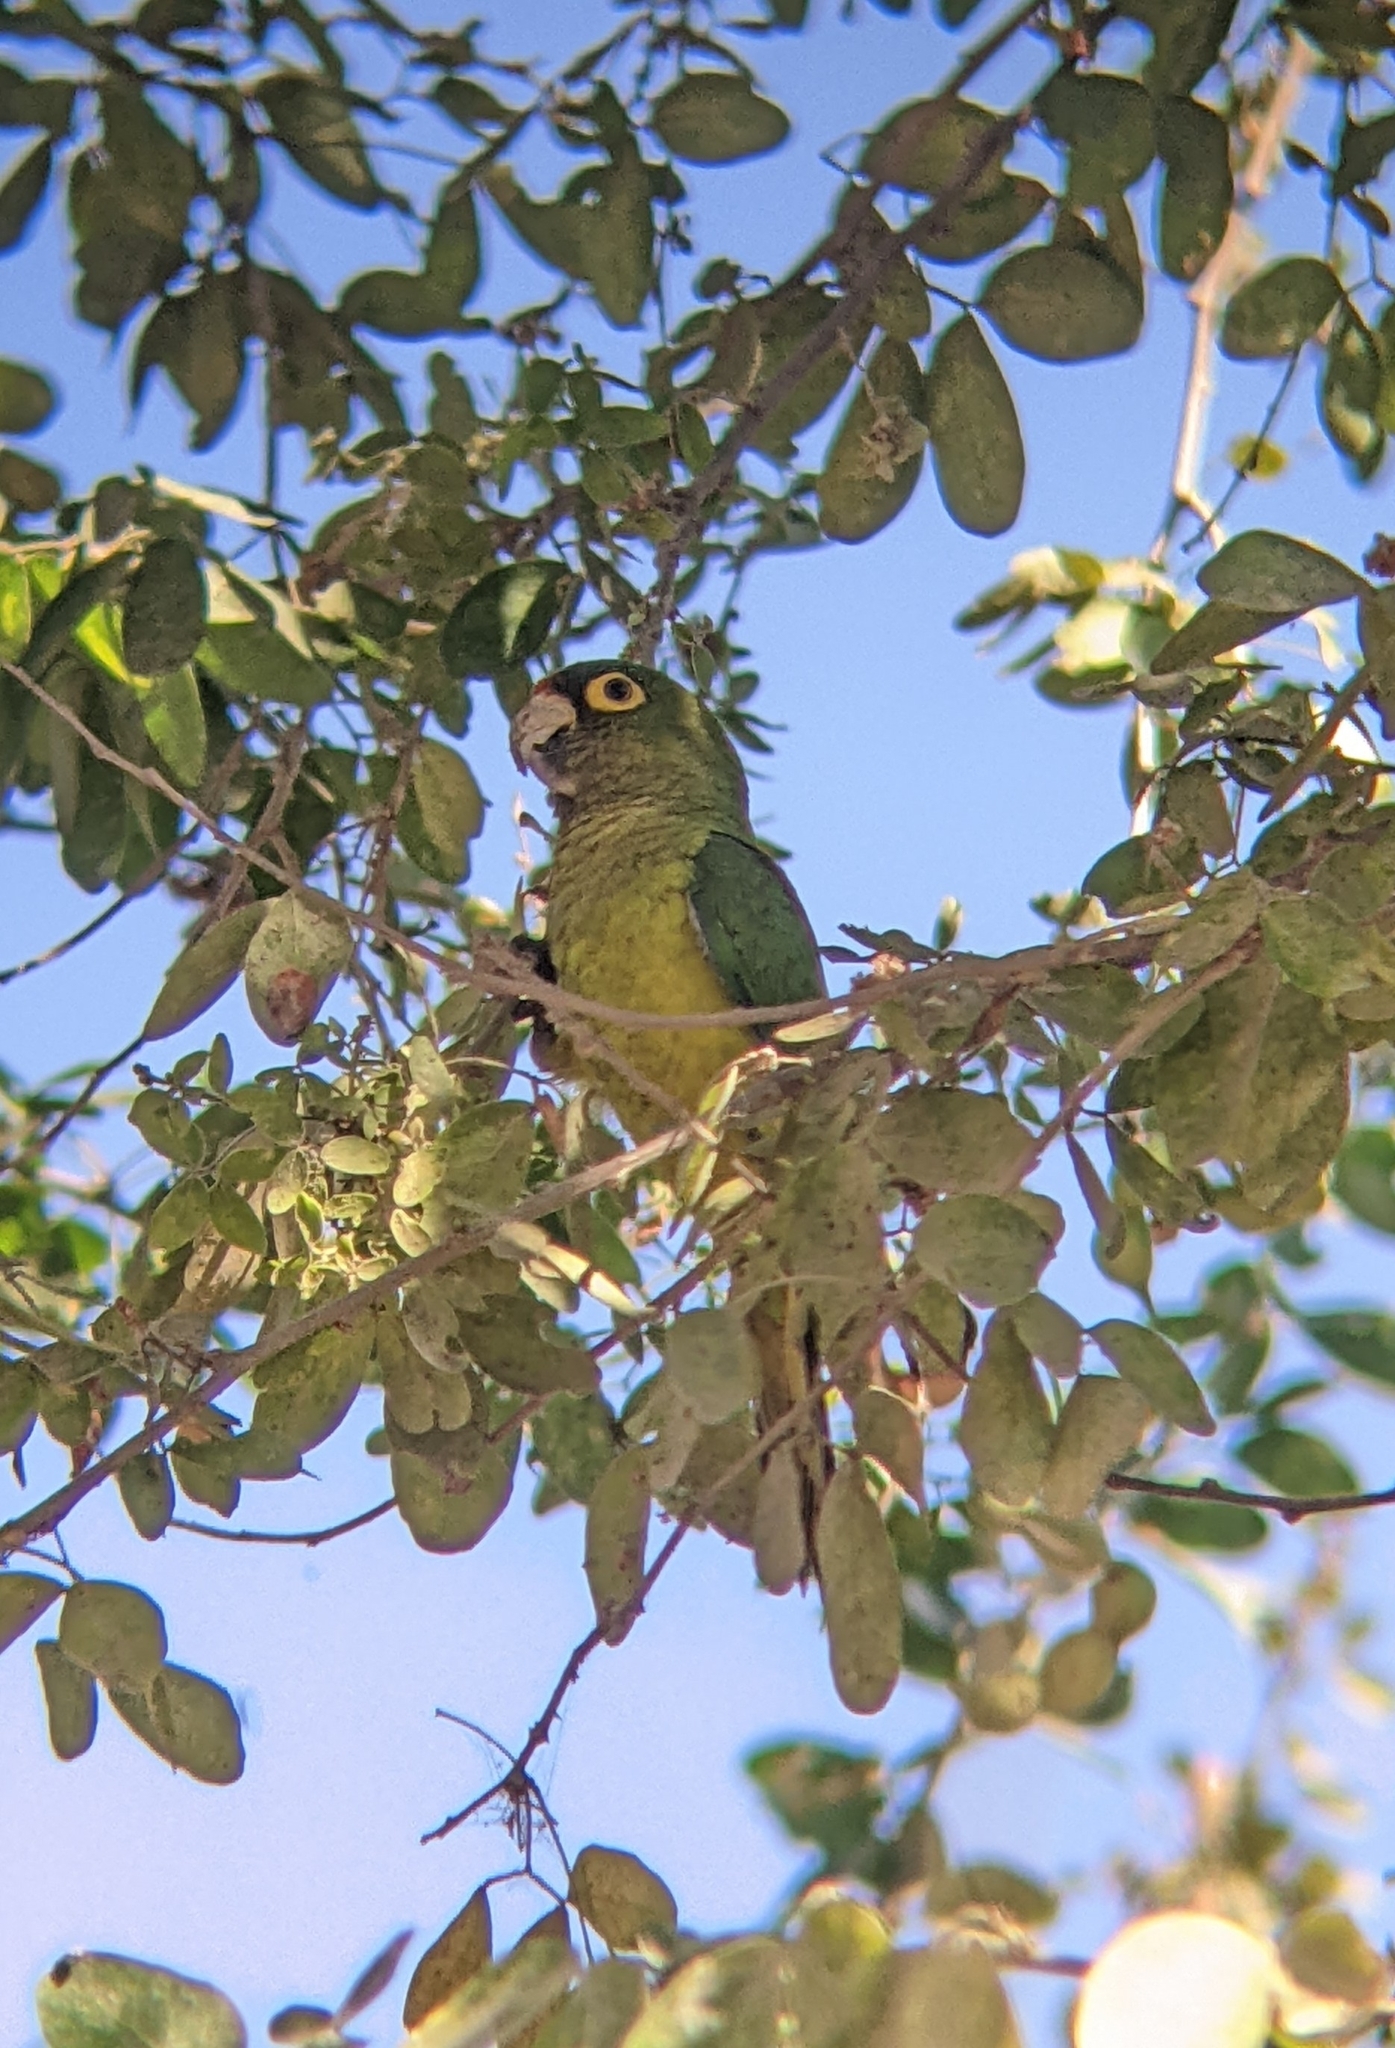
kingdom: Animalia
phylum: Chordata
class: Aves
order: Psittaciformes
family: Psittacidae
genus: Aratinga
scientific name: Aratinga canicularis
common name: Orange-fronted parakeet
